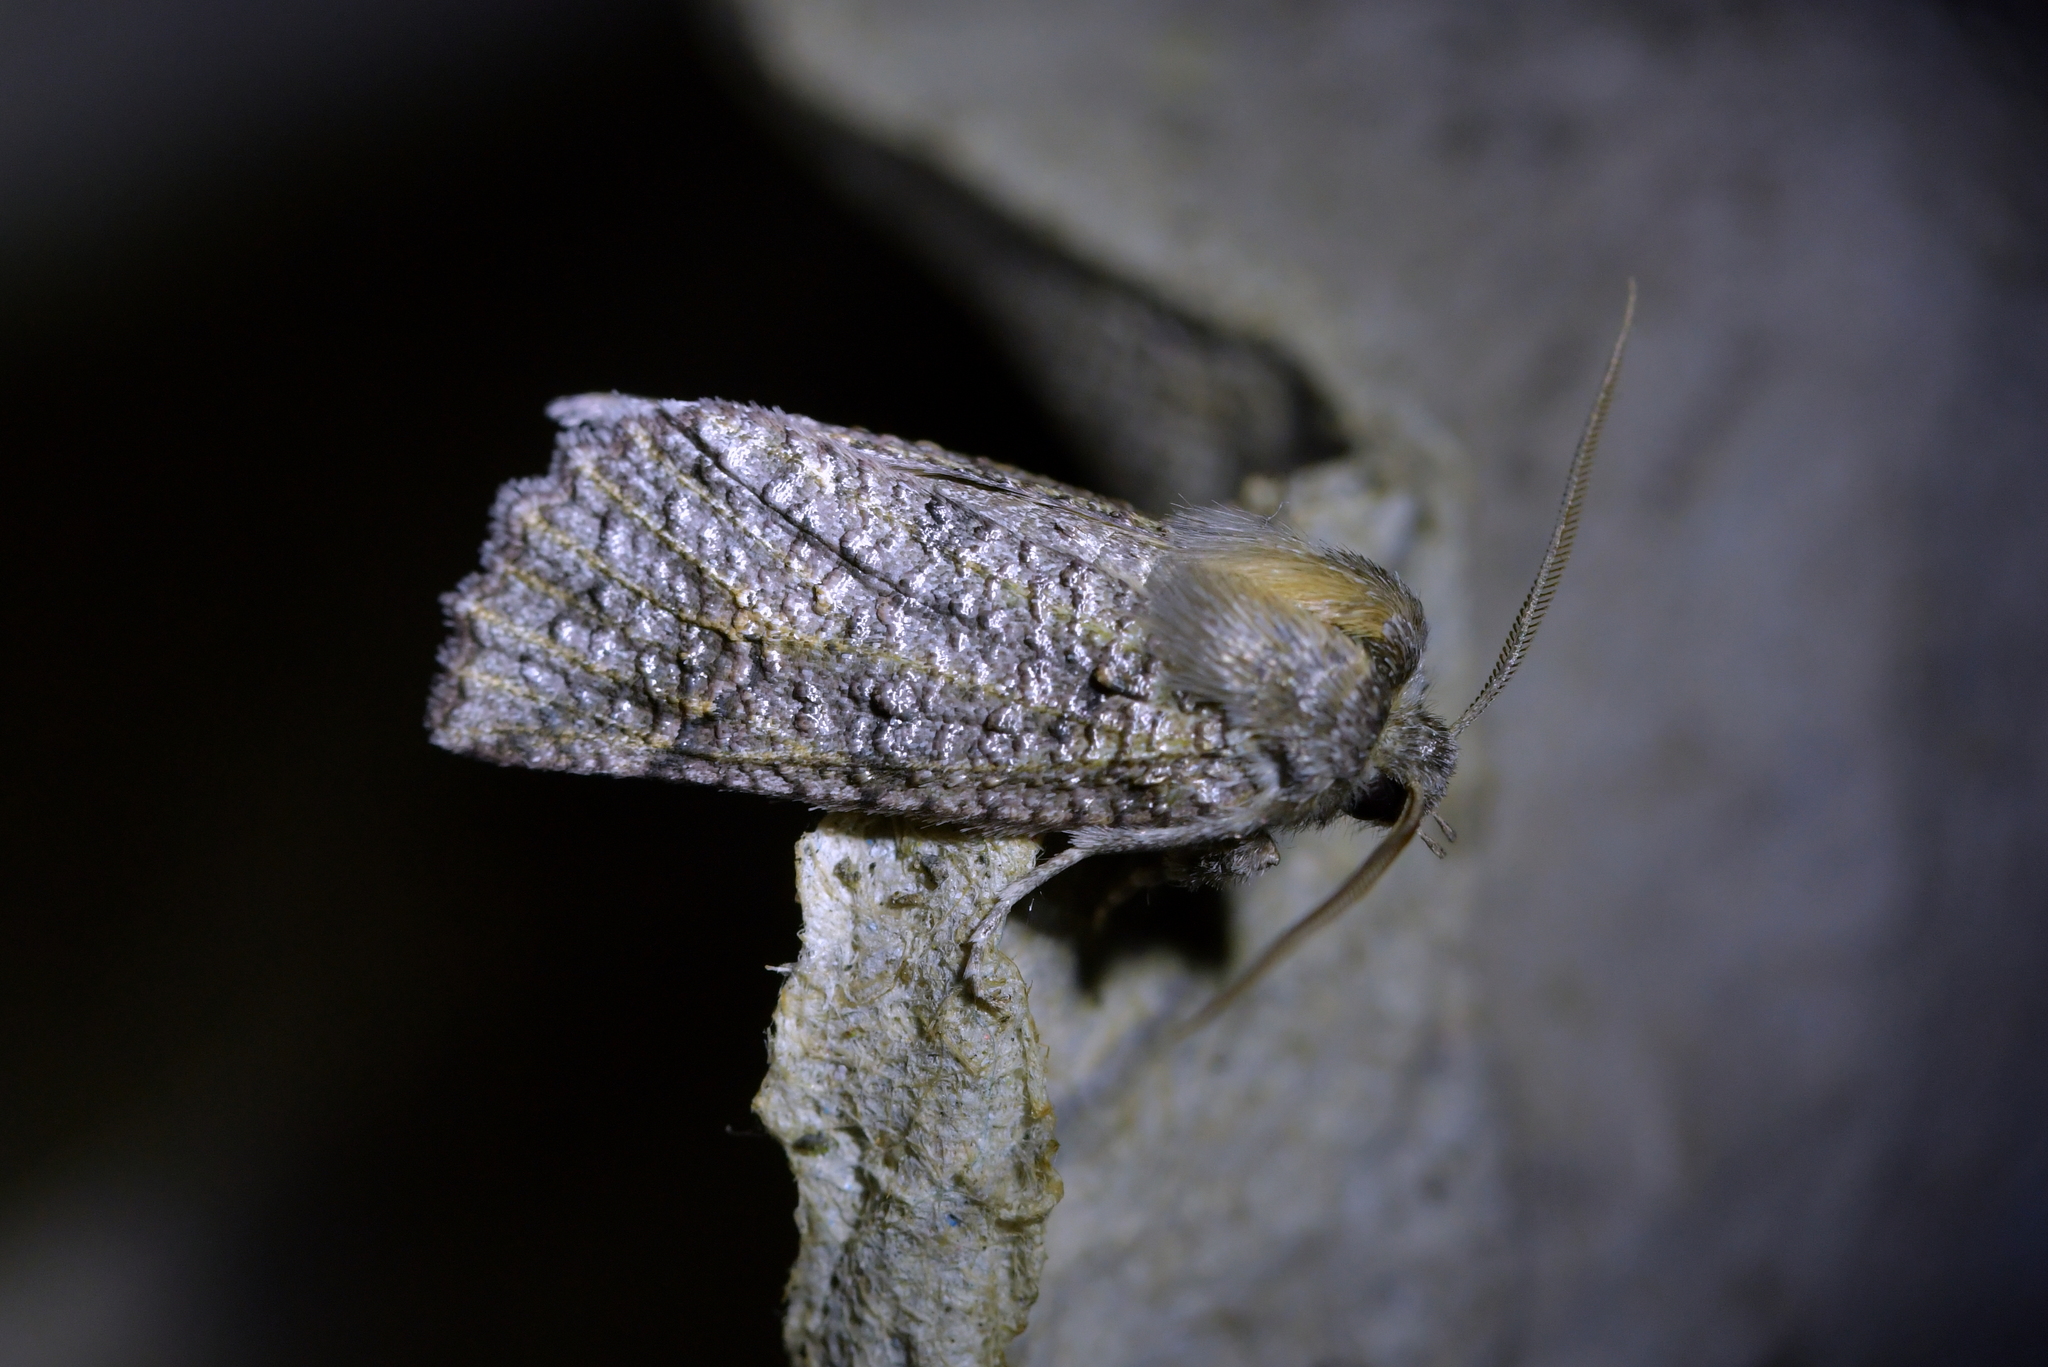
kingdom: Animalia
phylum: Arthropoda
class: Insecta
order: Lepidoptera
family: Geometridae
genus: Declana
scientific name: Declana floccosa
